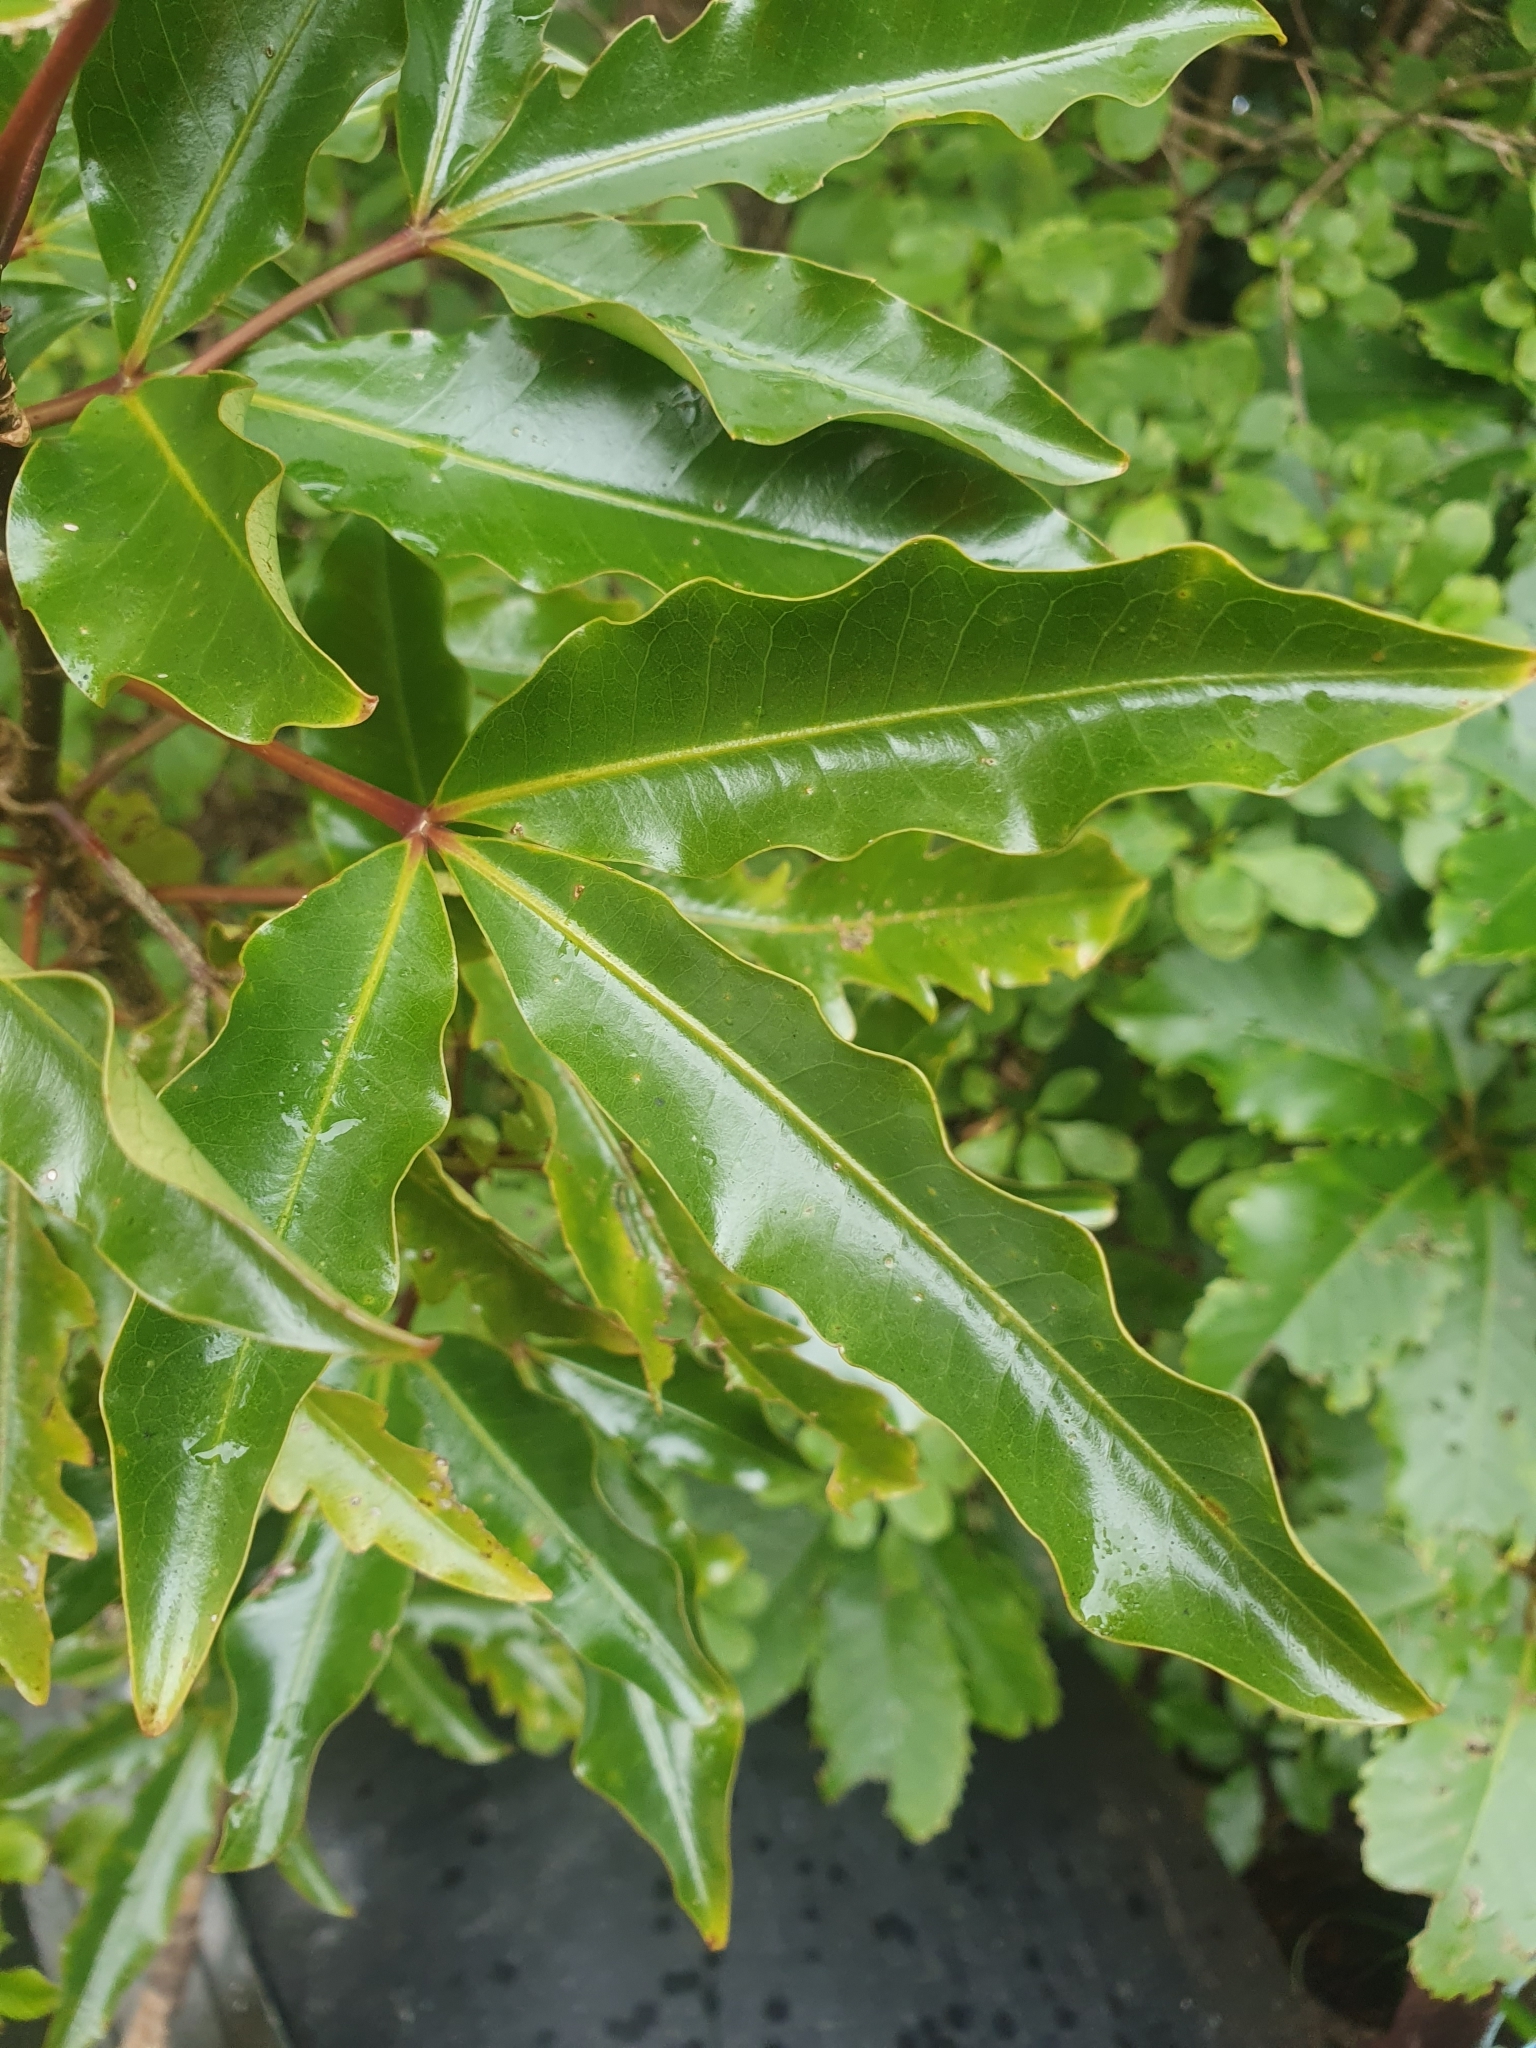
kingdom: Plantae
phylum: Tracheophyta
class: Magnoliopsida
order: Apiales
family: Araliaceae
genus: Raukaua
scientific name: Raukaua edgerleyi
